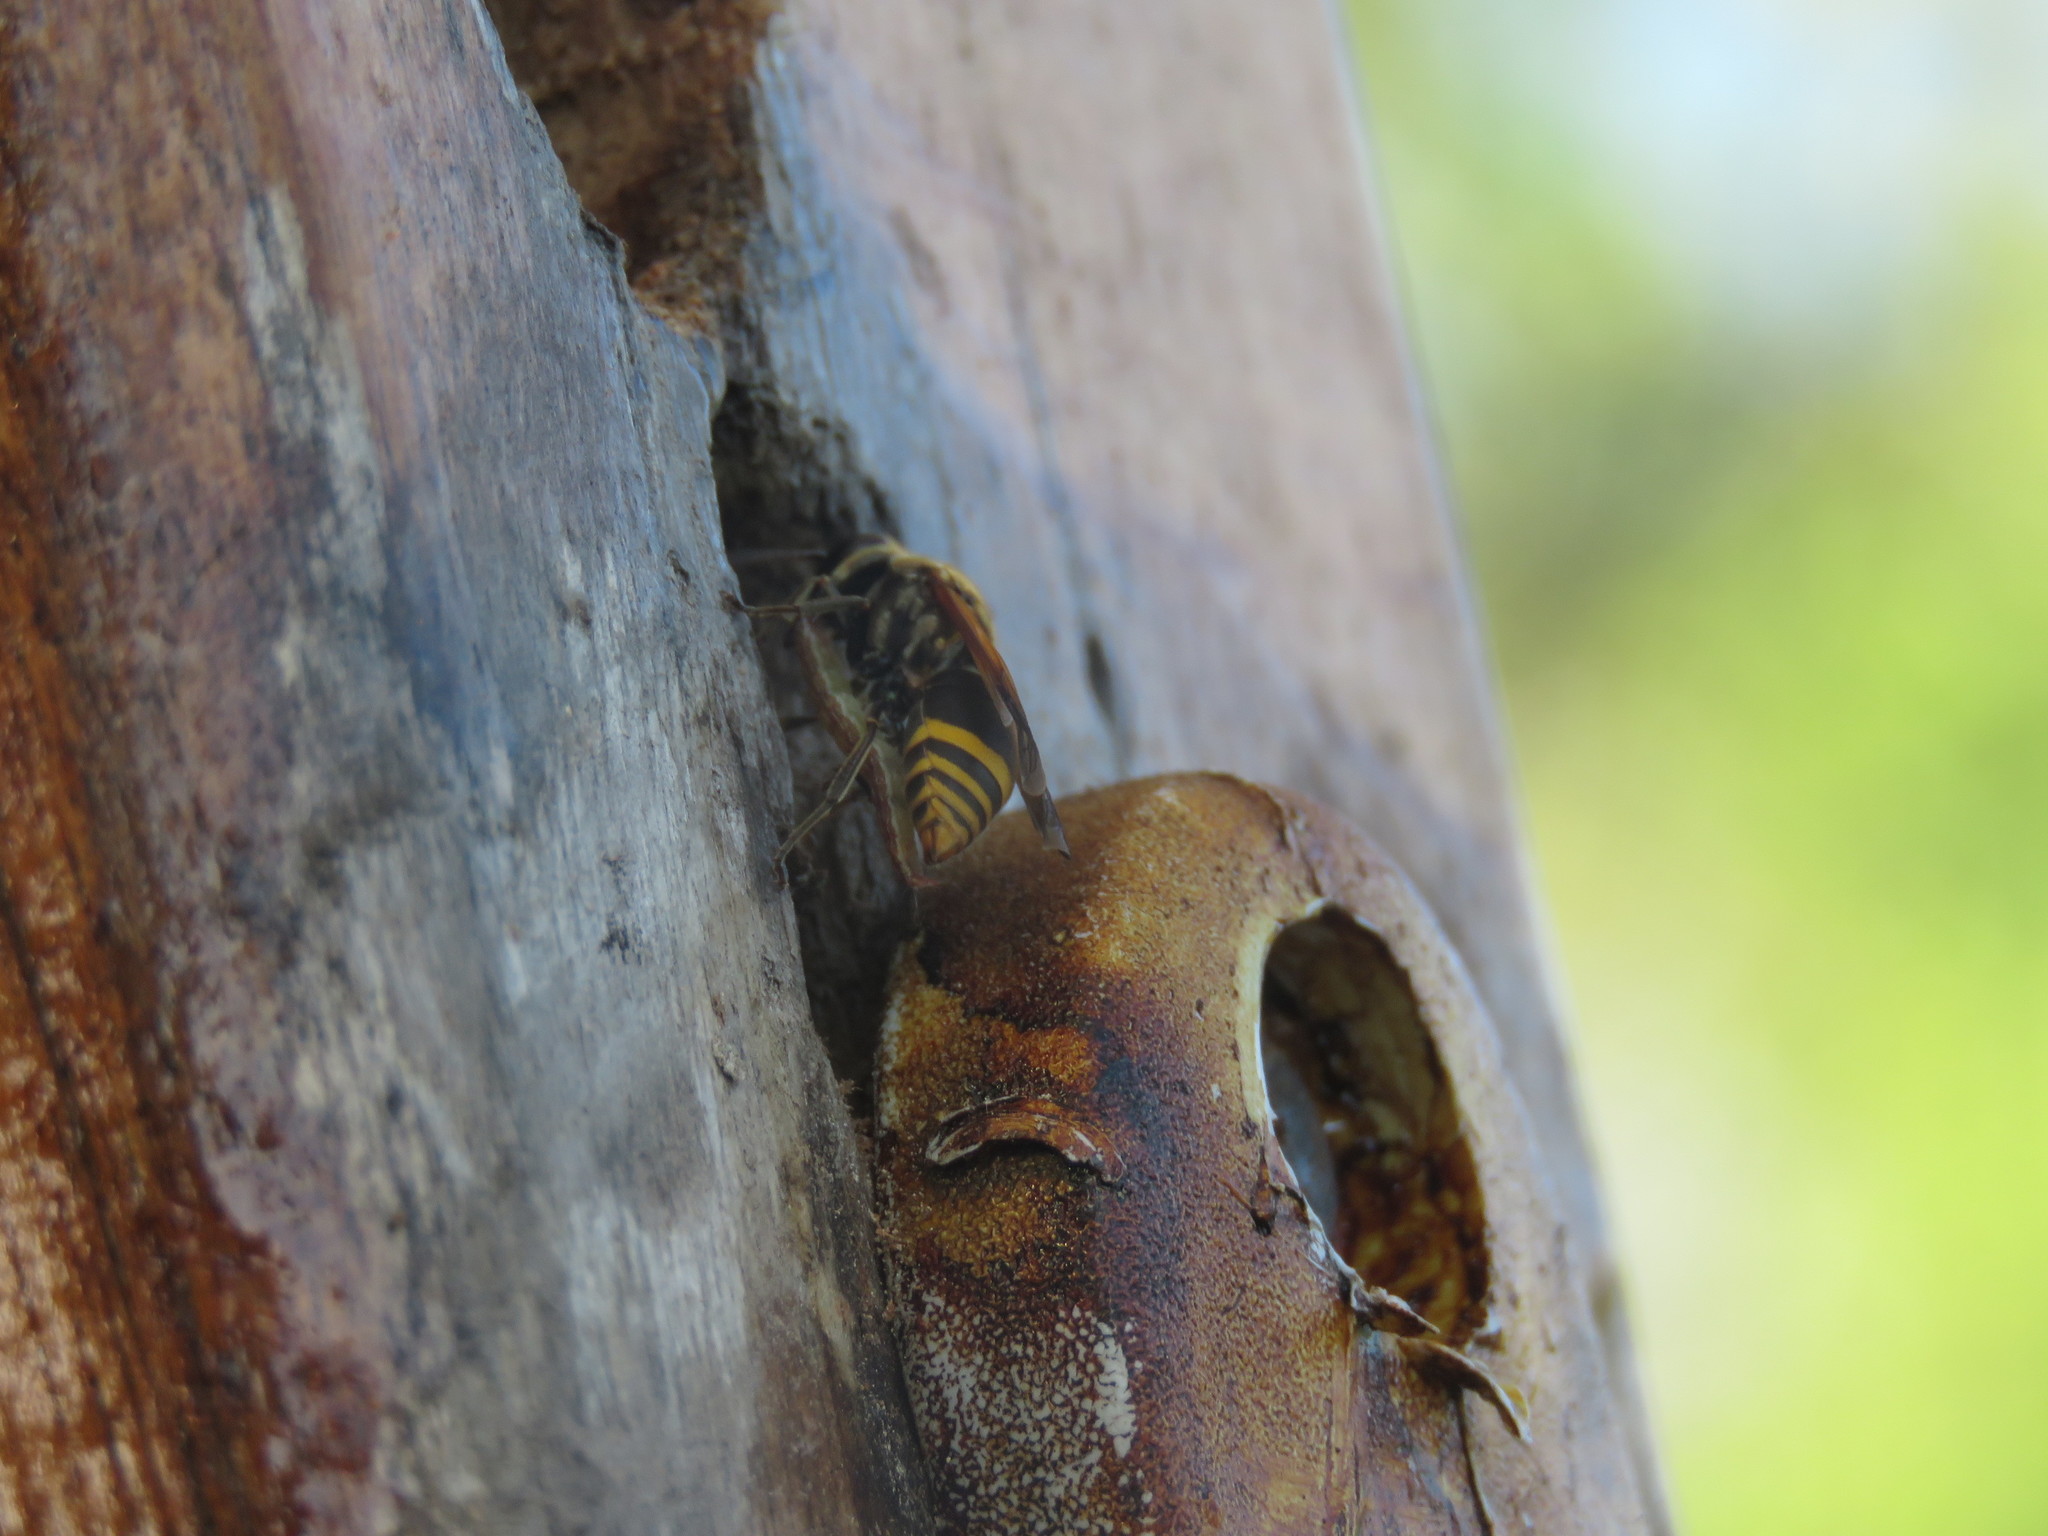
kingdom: Animalia
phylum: Arthropoda
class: Insecta
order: Hymenoptera
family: Vespidae
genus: Brachygastra
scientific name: Brachygastra lecheguana
